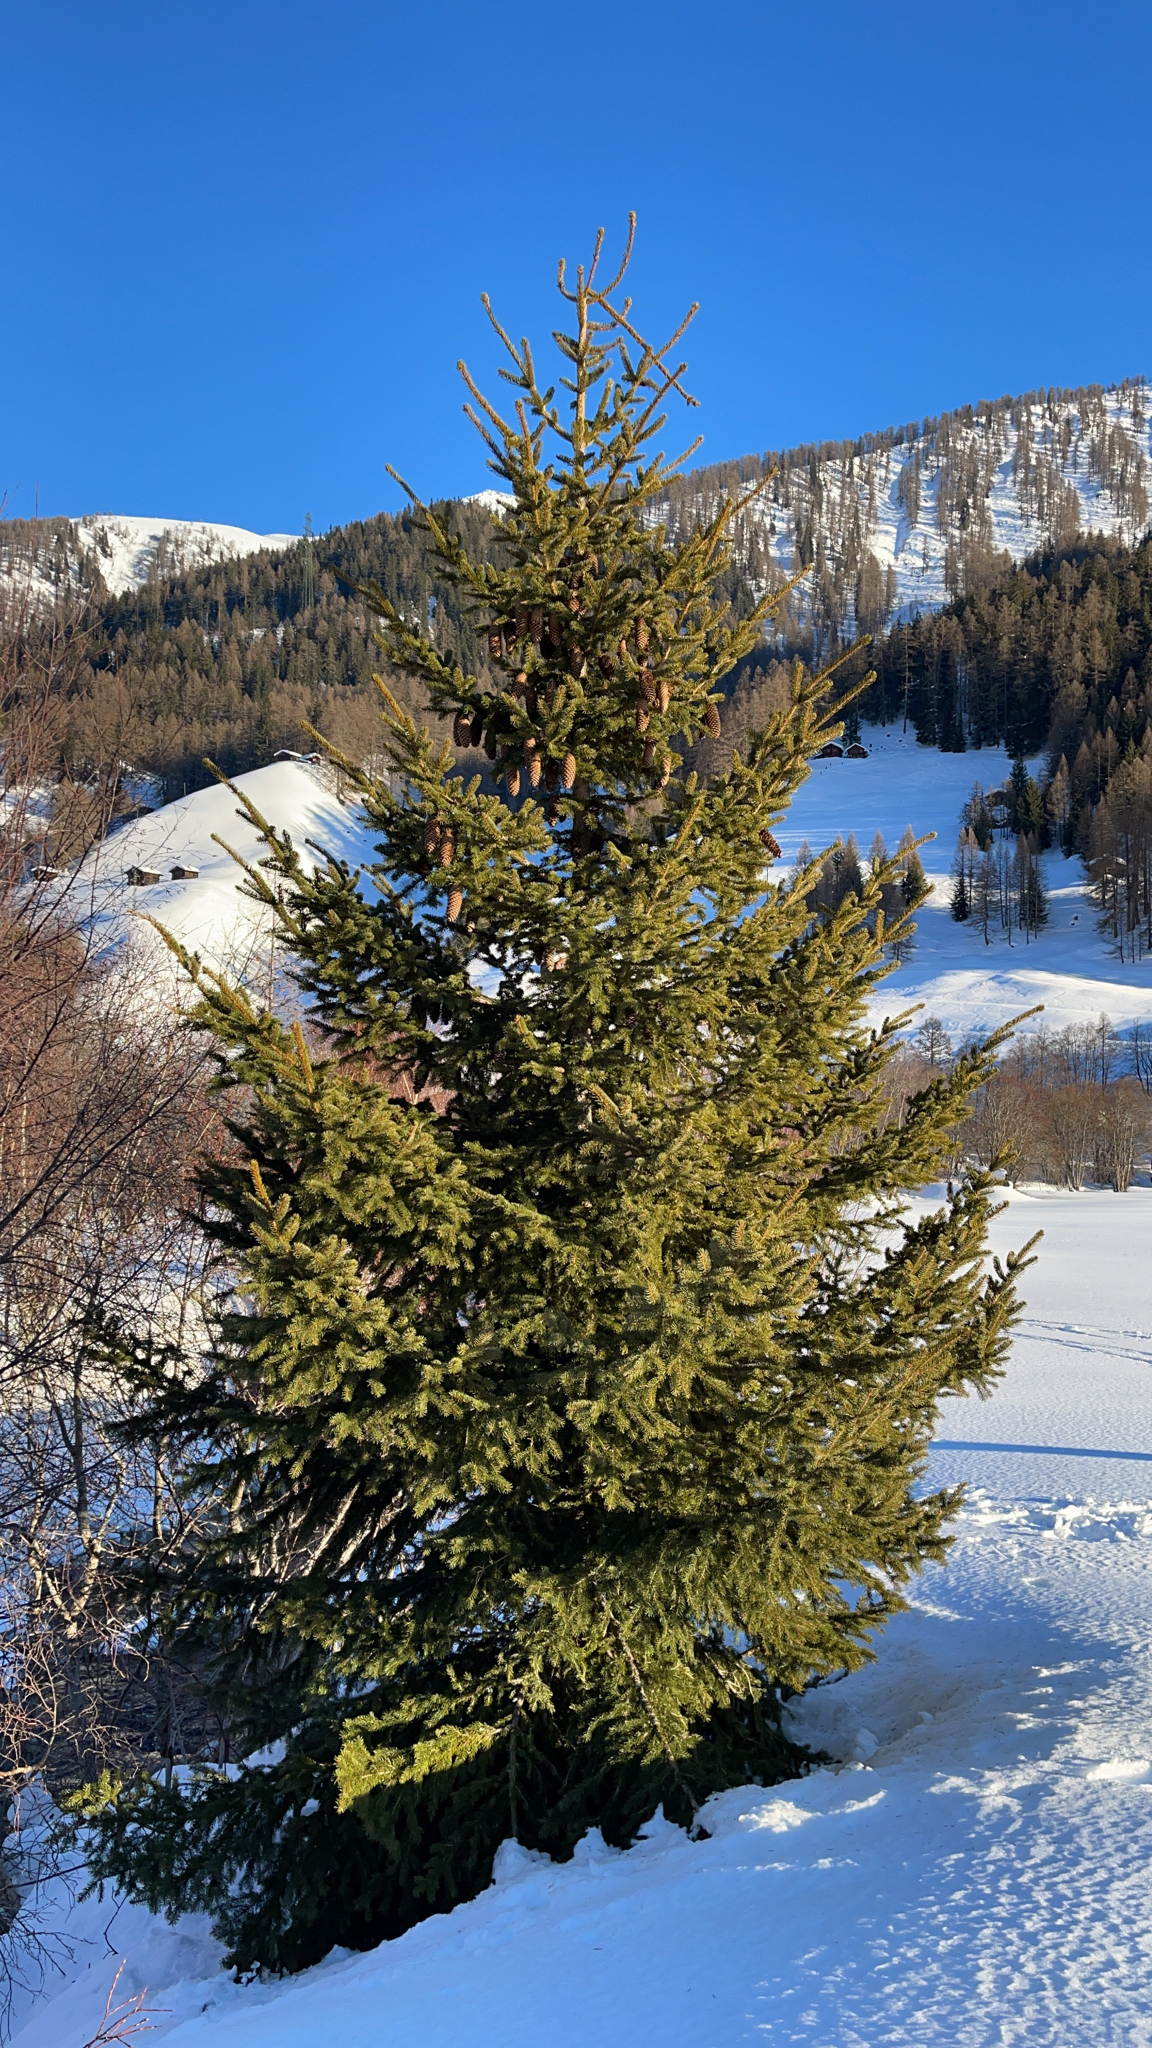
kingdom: Plantae
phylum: Tracheophyta
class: Pinopsida
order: Pinales
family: Pinaceae
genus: Picea
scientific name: Picea abies
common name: Norway spruce
